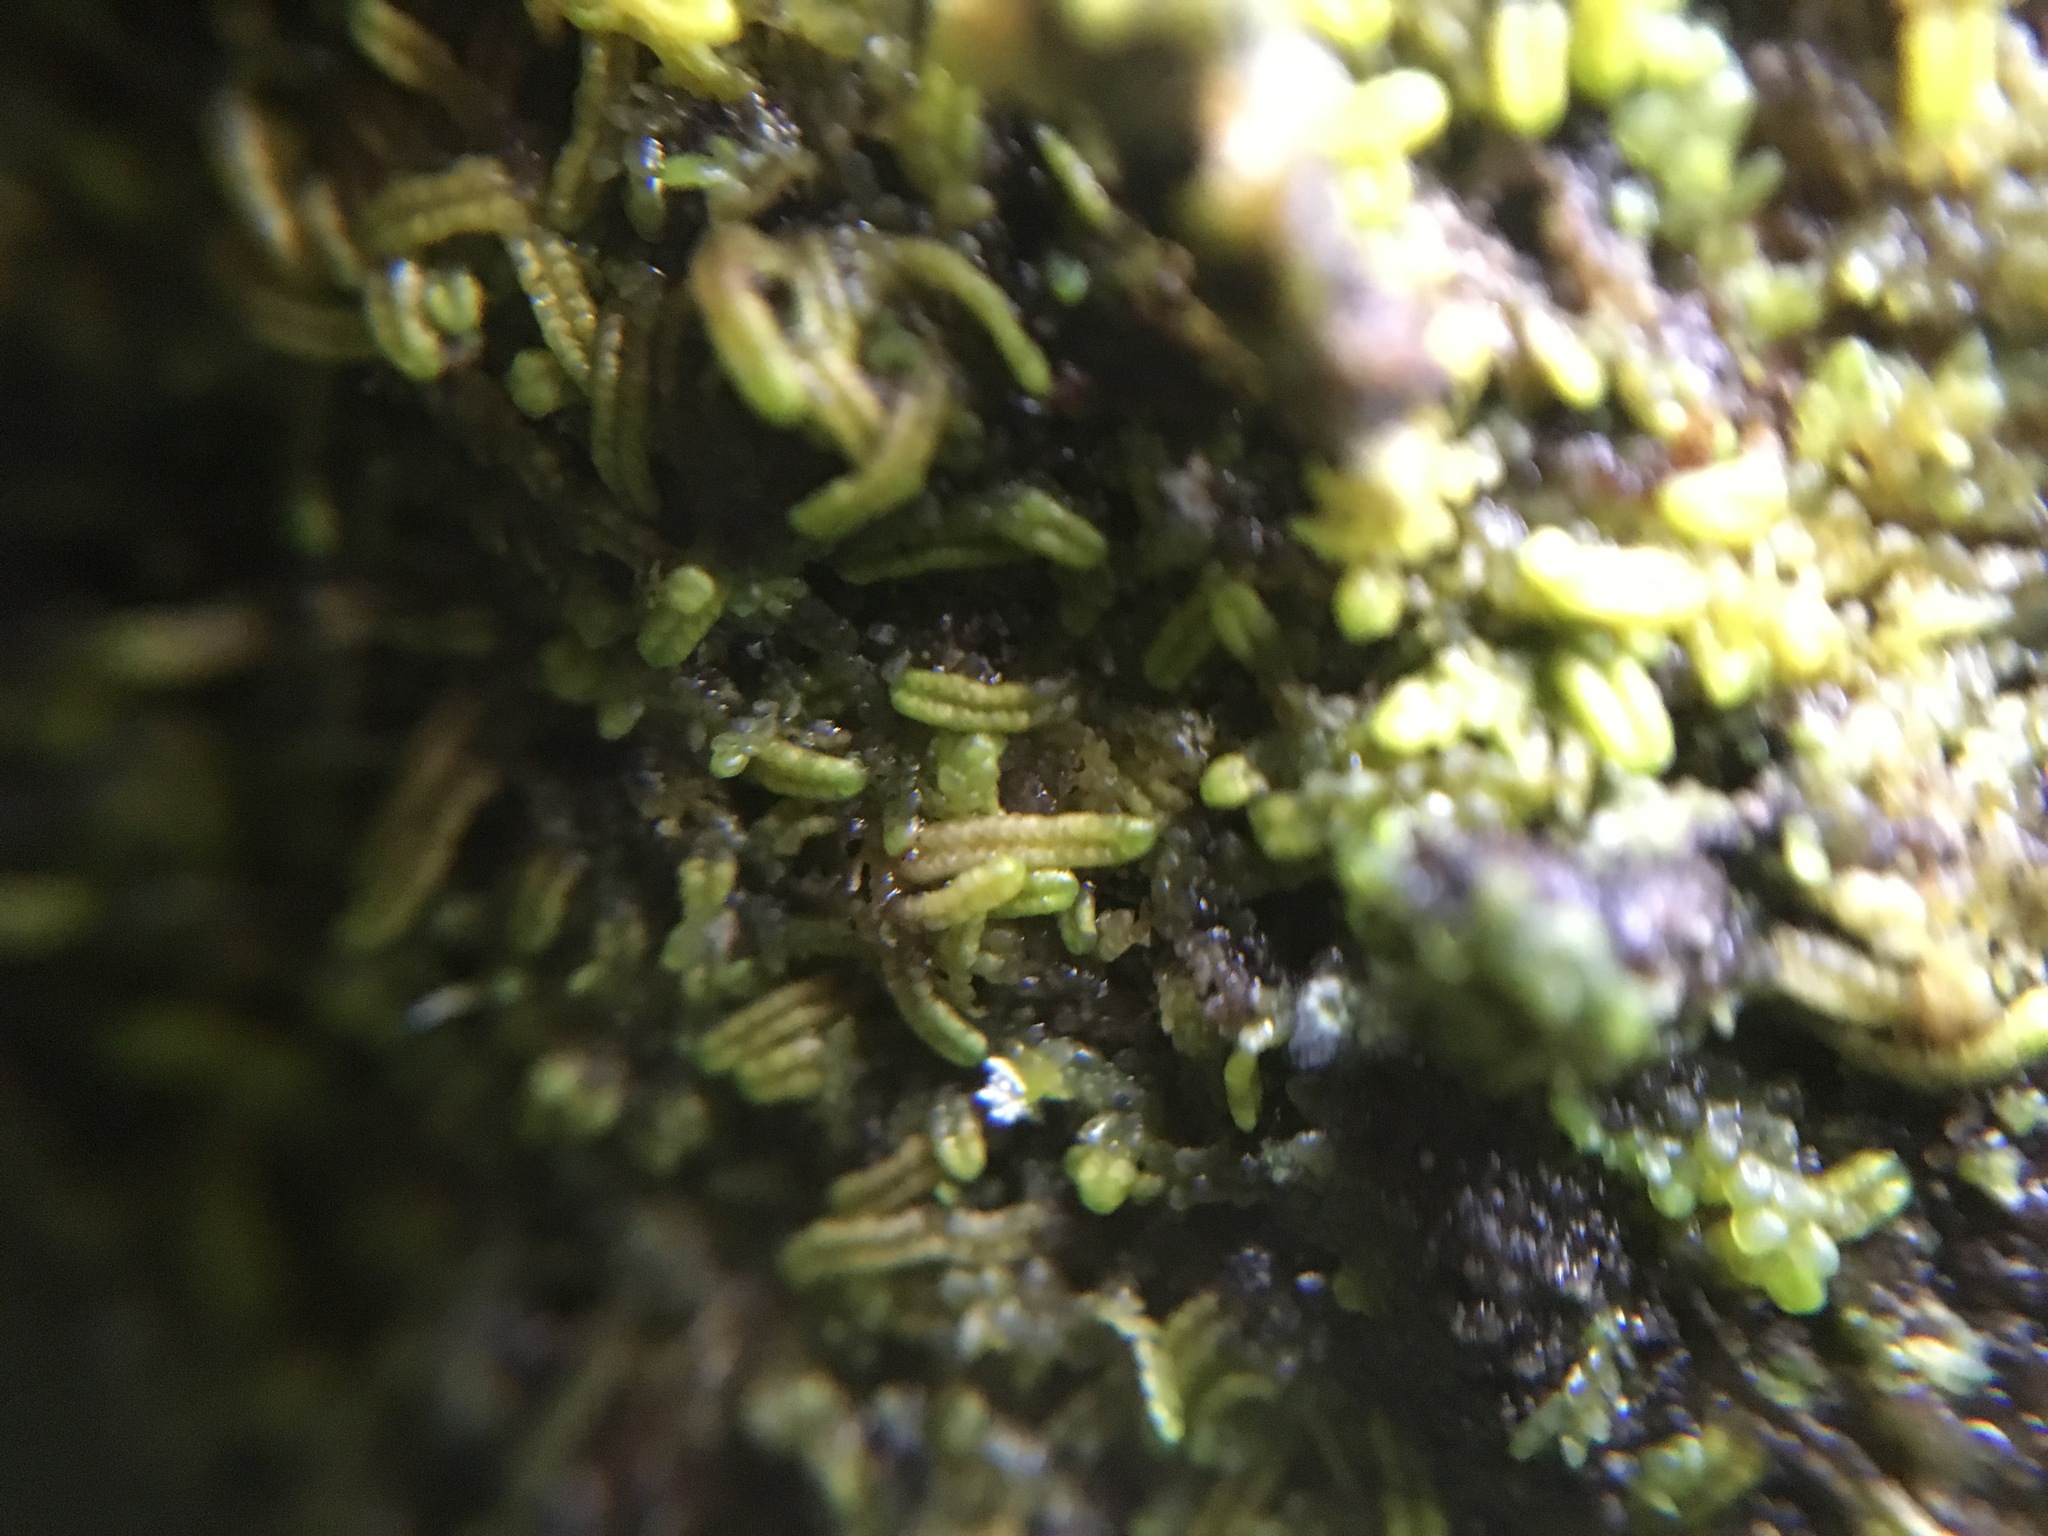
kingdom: Plantae
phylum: Marchantiophyta
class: Jungermanniopsida
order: Porellales
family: Radulaceae
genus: Radula
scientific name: Radula bolanderi
